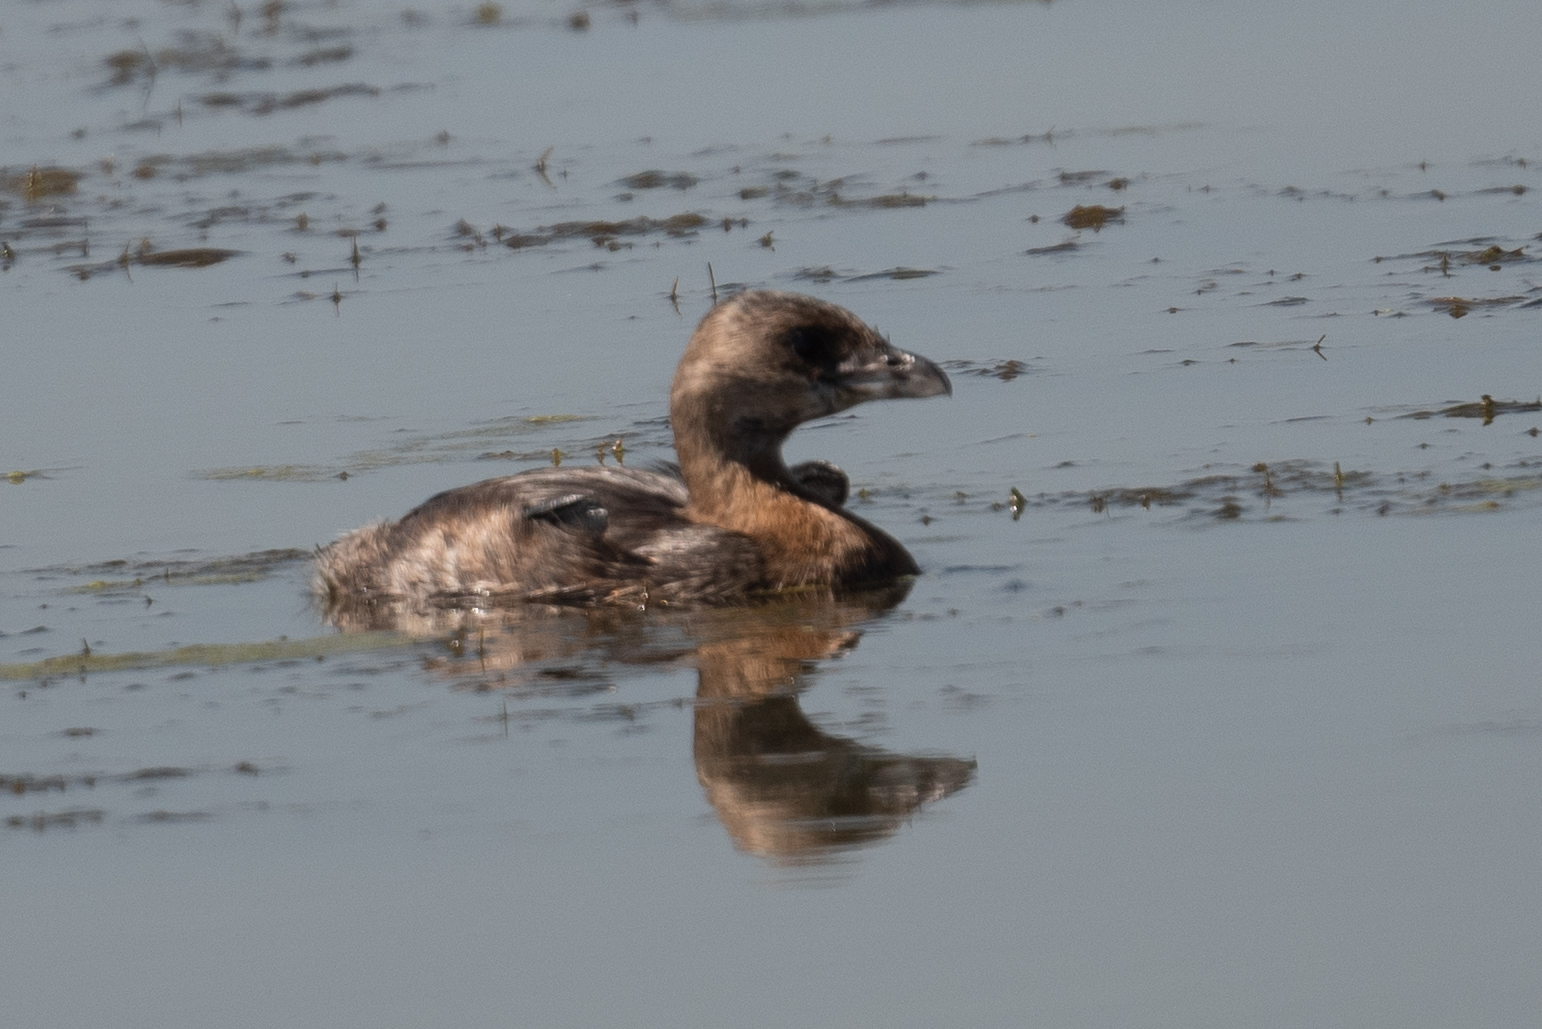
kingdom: Animalia
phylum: Chordata
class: Aves
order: Podicipediformes
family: Podicipedidae
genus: Podilymbus
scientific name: Podilymbus podiceps
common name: Pied-billed grebe
